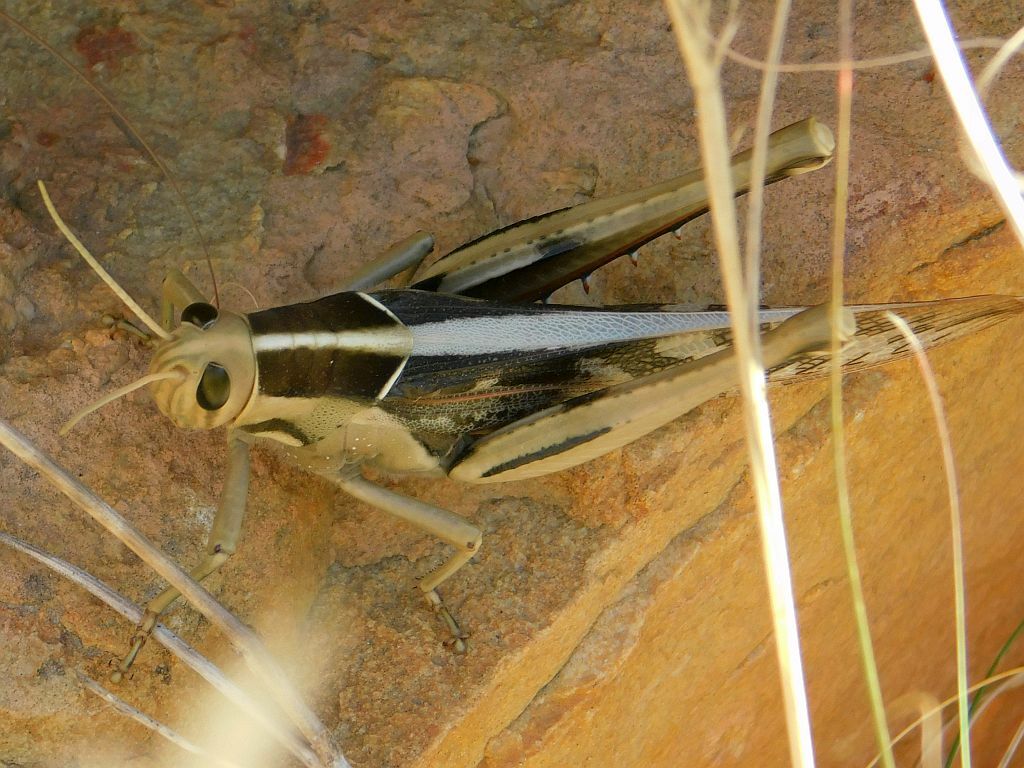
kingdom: Animalia
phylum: Arthropoda
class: Insecta
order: Orthoptera
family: Acrididae
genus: Acanthacris
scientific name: Acanthacris ruficornis
